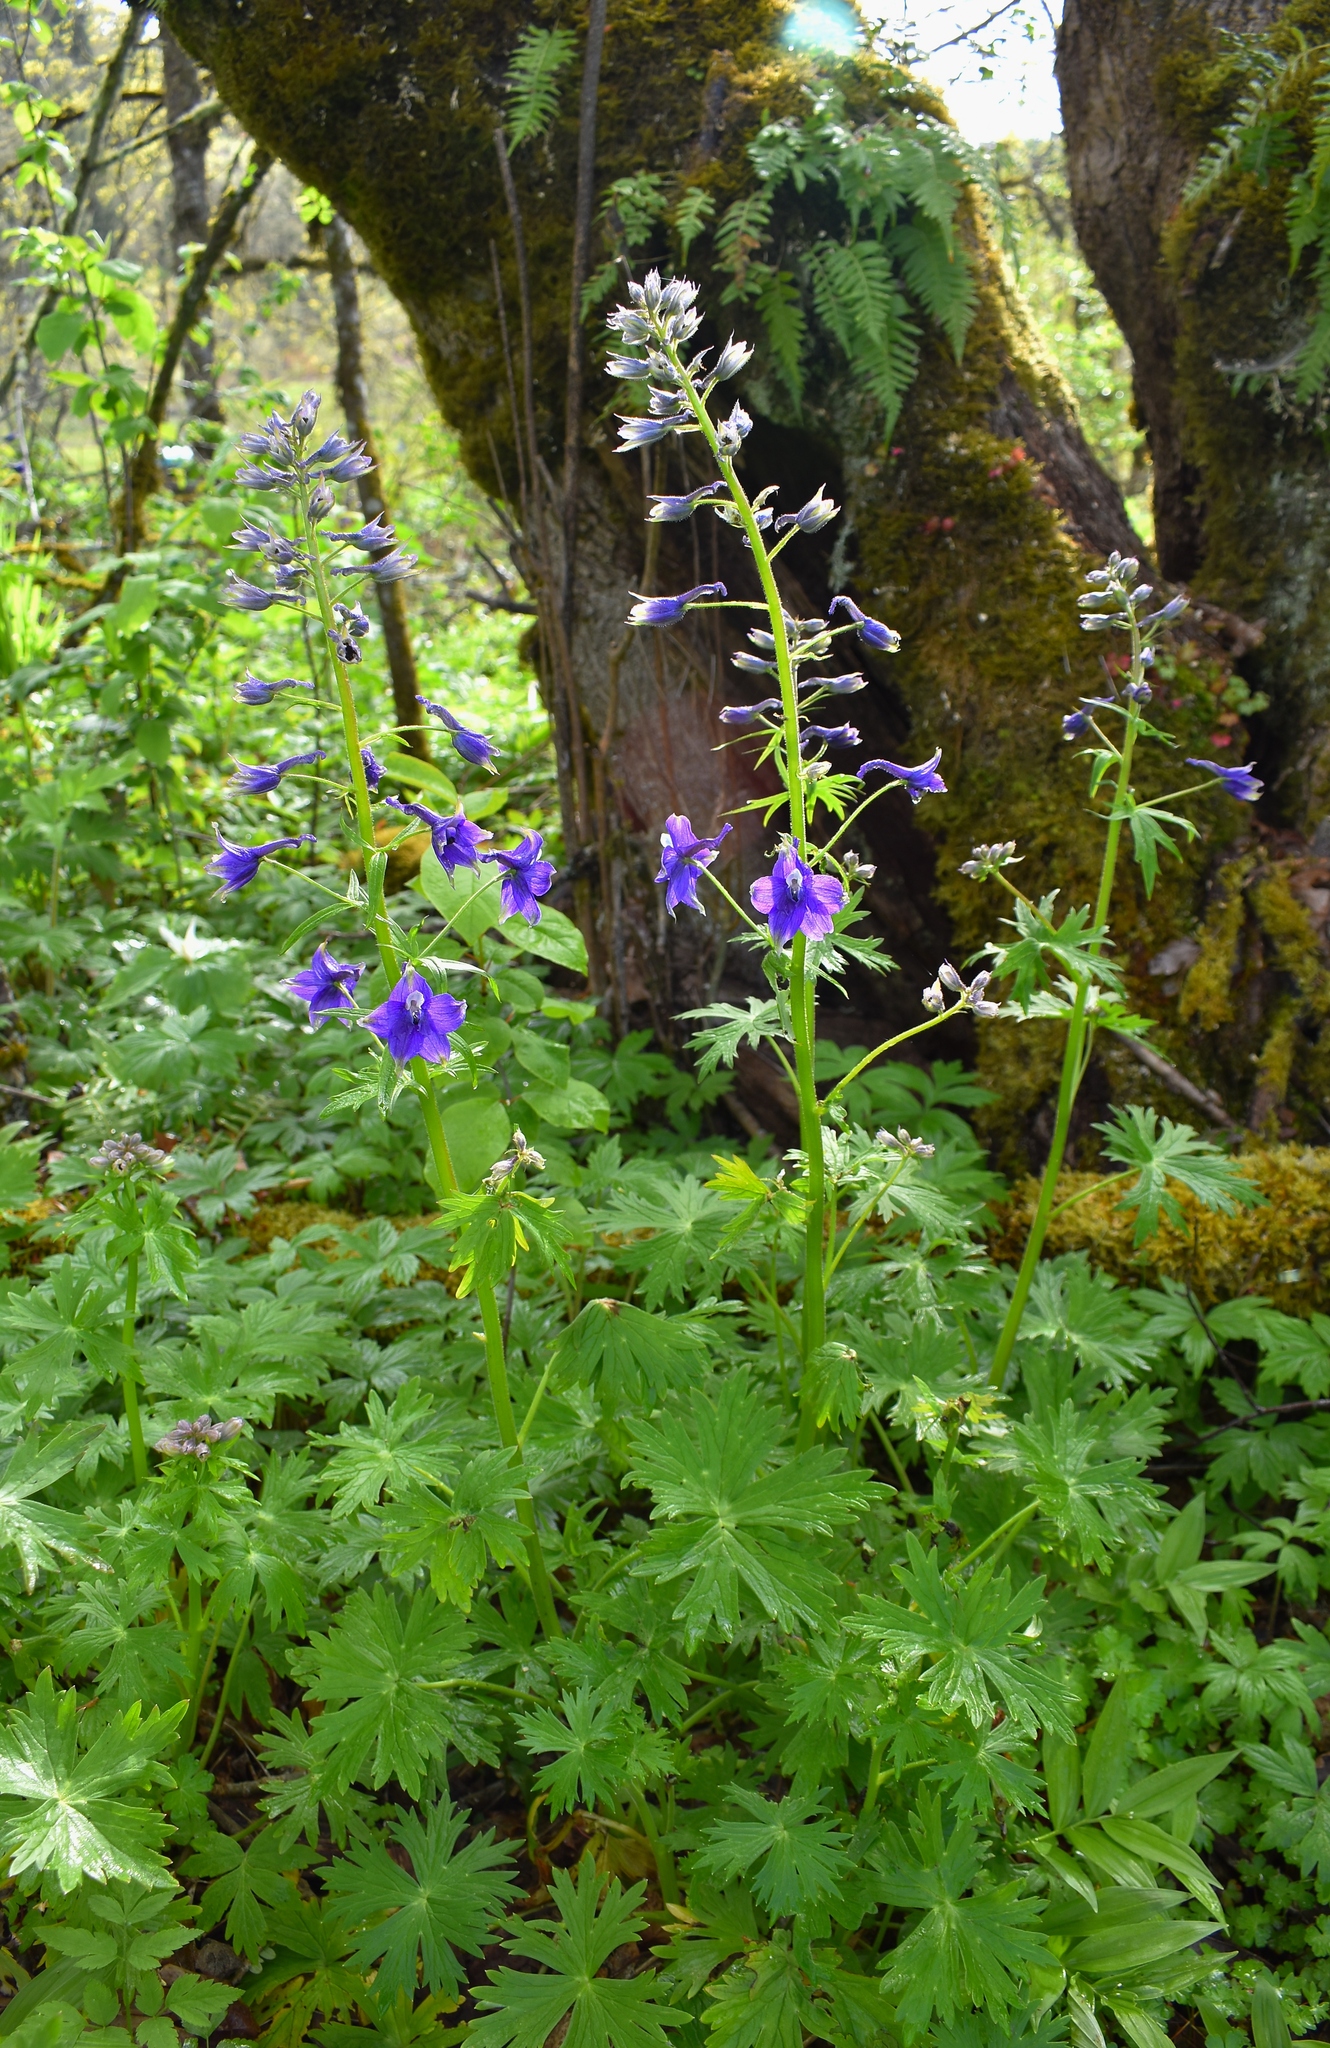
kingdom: Plantae
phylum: Tracheophyta
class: Magnoliopsida
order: Ranunculales
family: Ranunculaceae
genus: Delphinium
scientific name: Delphinium trolliifolium
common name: Cow-poison
